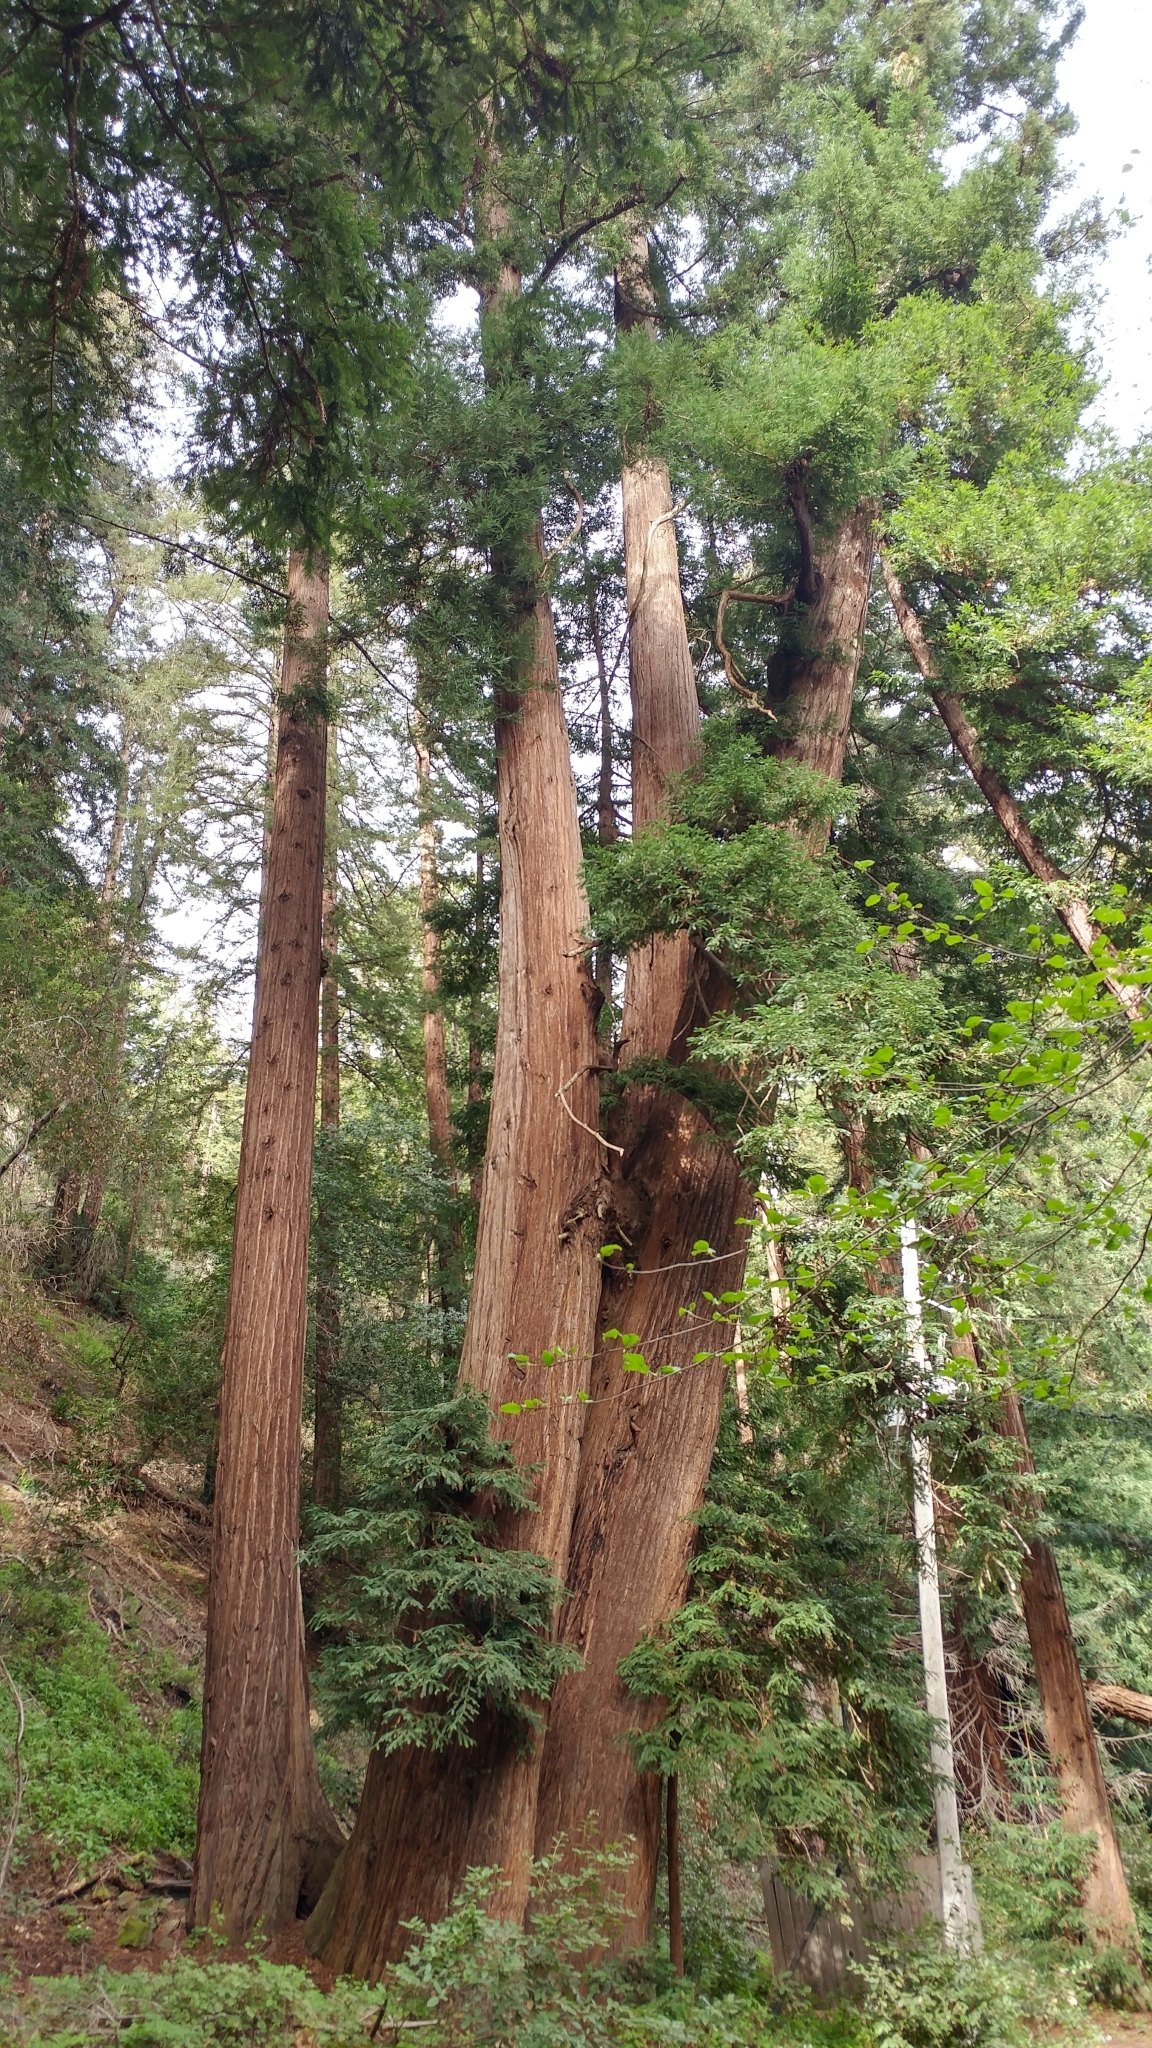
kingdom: Plantae
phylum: Tracheophyta
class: Pinopsida
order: Pinales
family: Cupressaceae
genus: Sequoia
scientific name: Sequoia sempervirens
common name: Coast redwood
